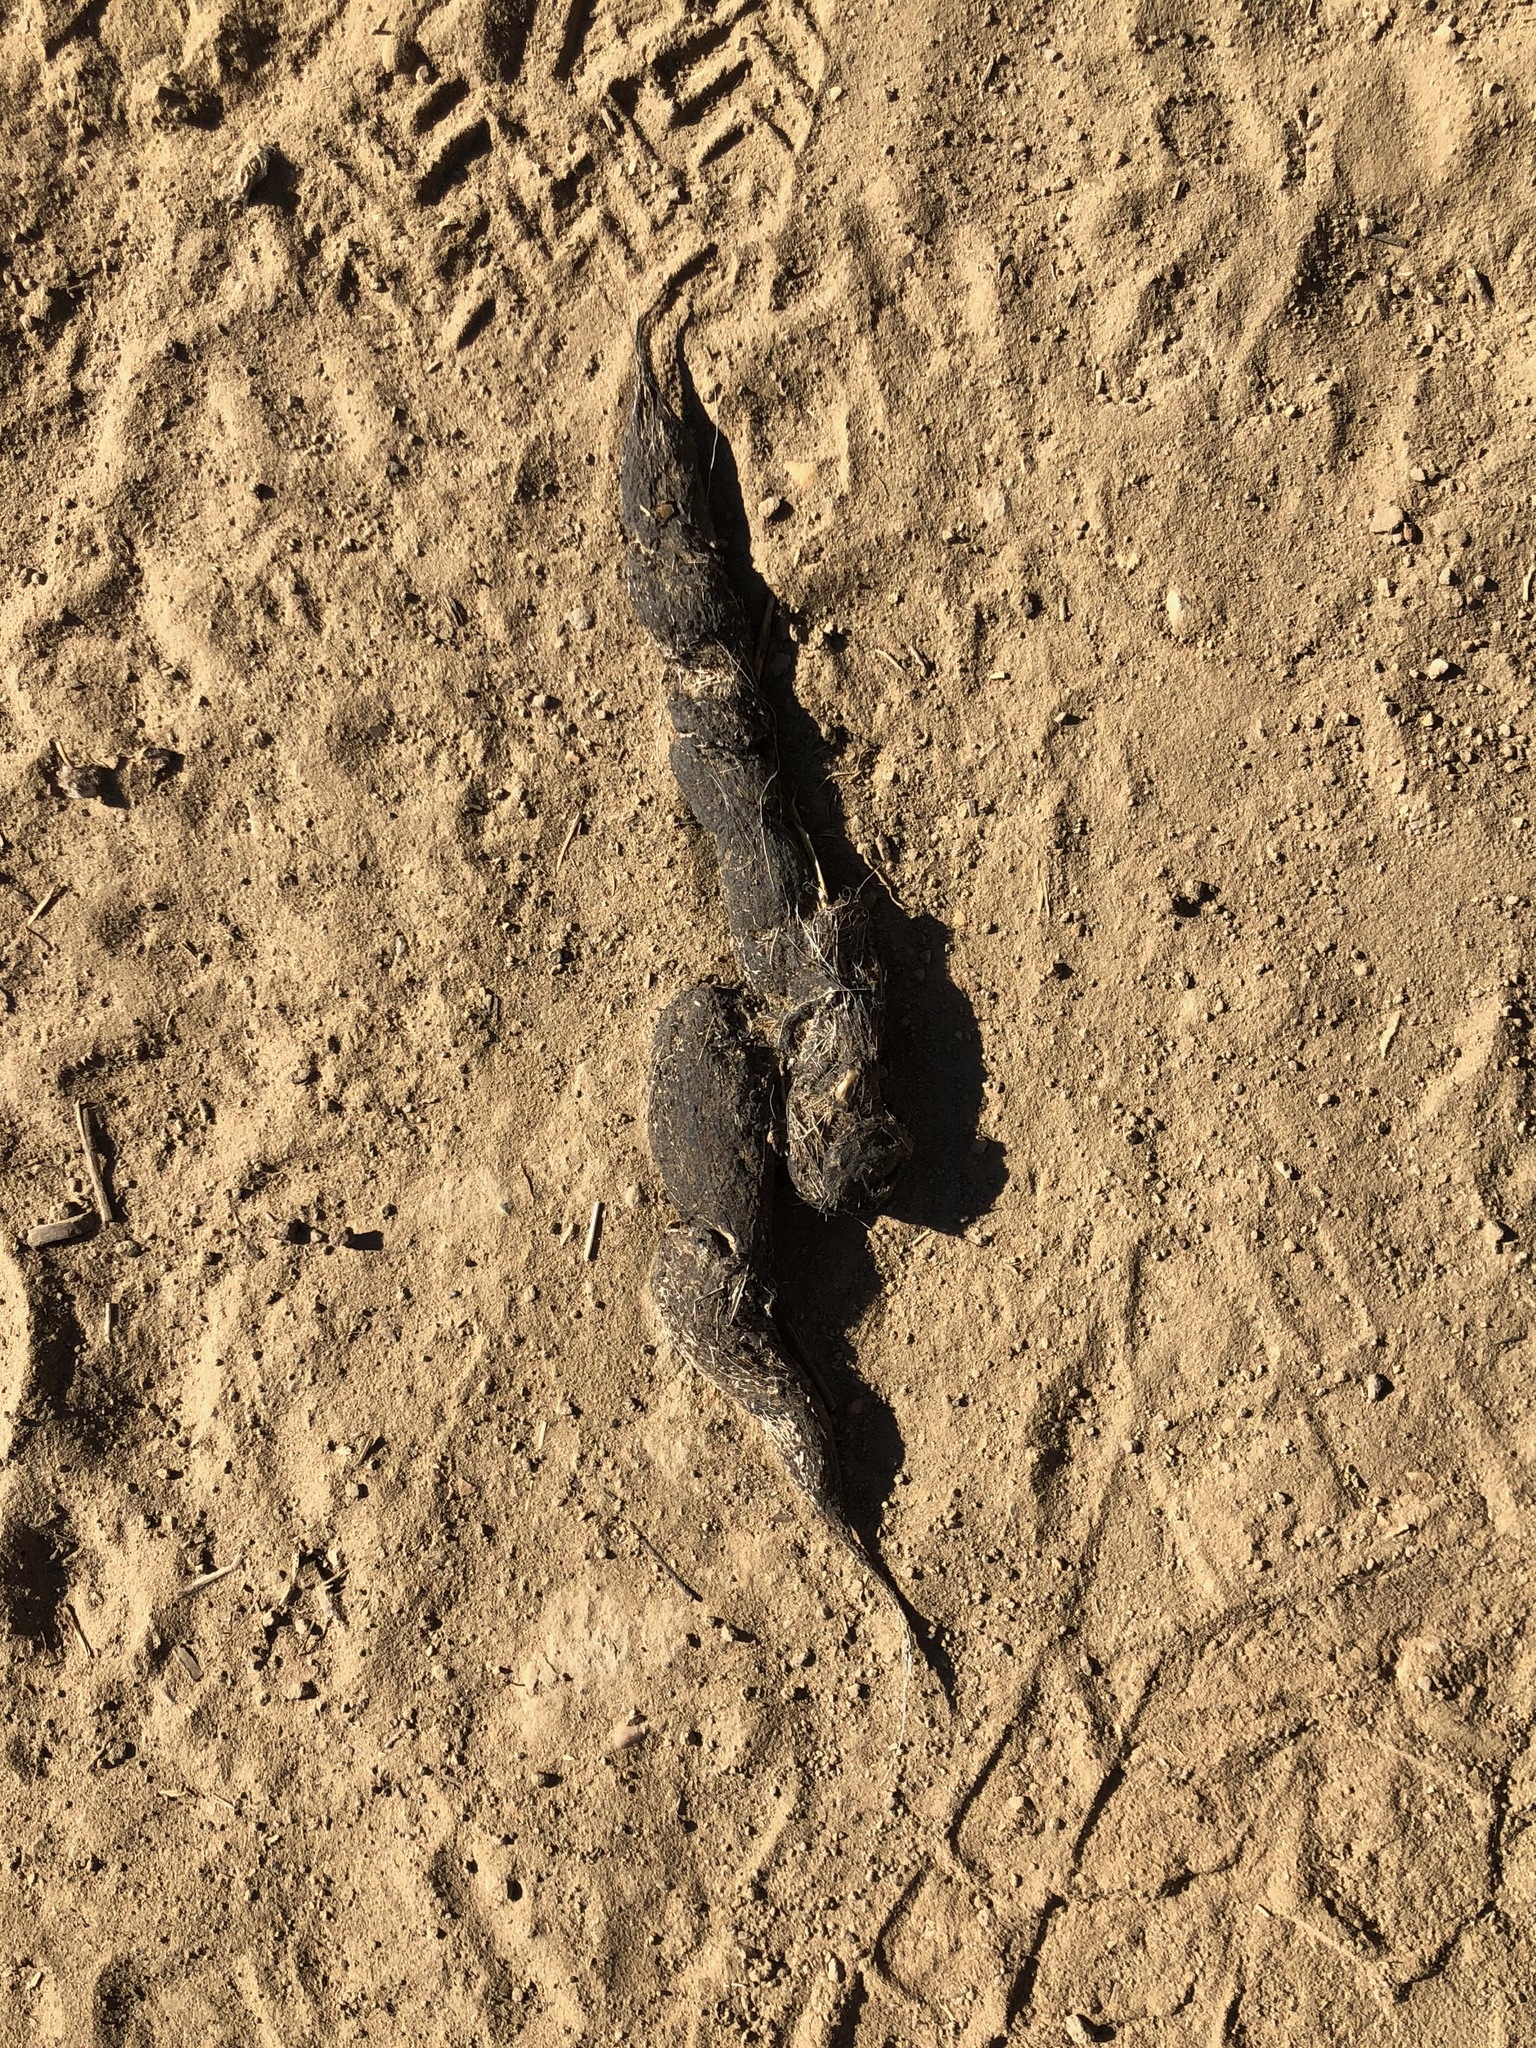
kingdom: Animalia
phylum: Chordata
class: Mammalia
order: Carnivora
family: Canidae
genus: Canis
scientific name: Canis latrans
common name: Coyote
